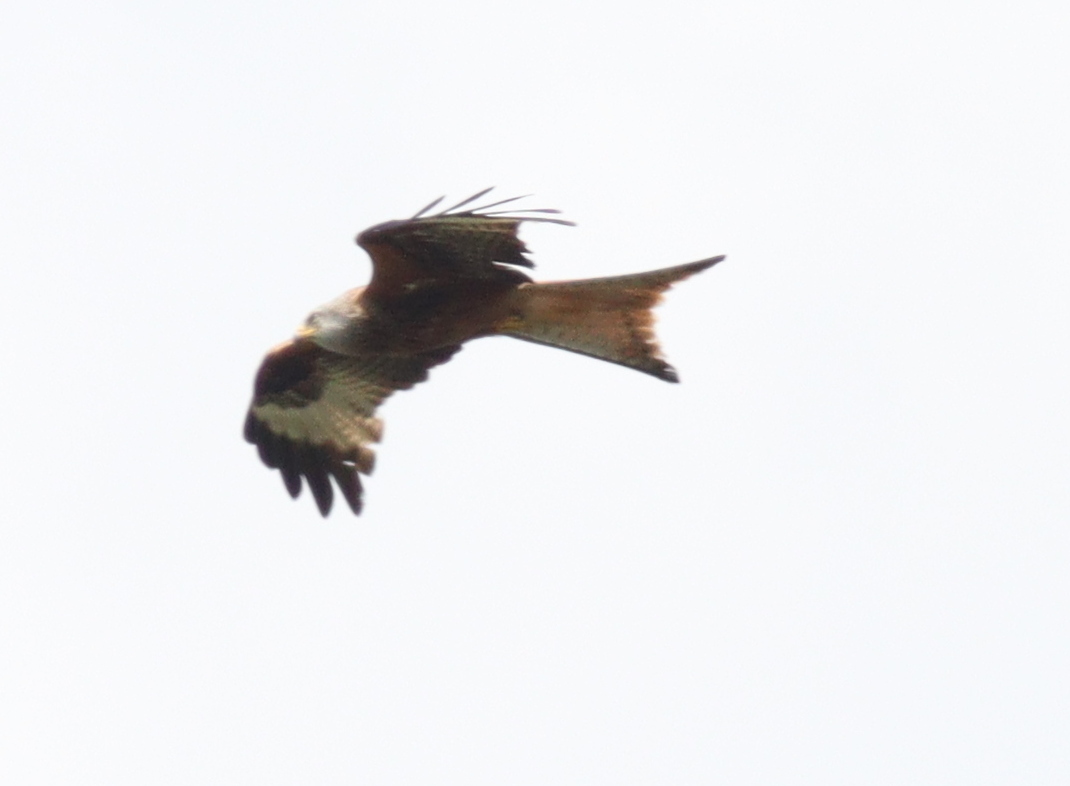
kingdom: Animalia
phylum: Chordata
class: Aves
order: Accipitriformes
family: Accipitridae
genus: Milvus
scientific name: Milvus milvus
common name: Red kite
